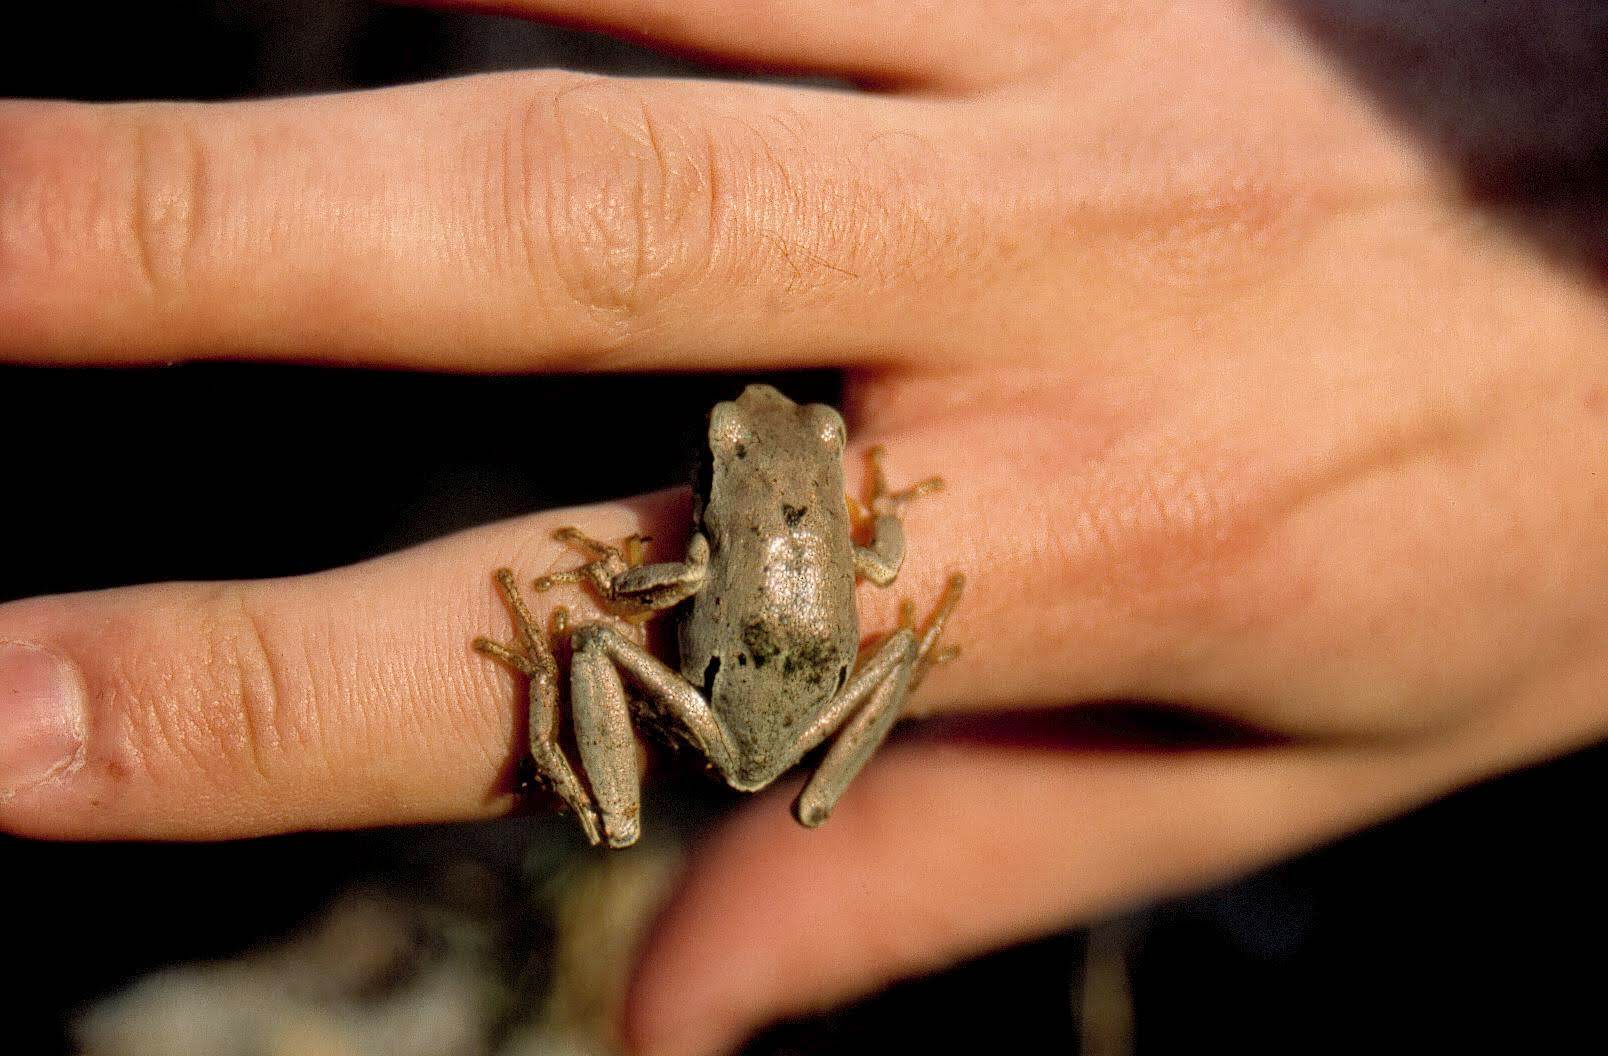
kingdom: Animalia
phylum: Chordata
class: Amphibia
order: Anura
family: Hylidae
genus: Hyla
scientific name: Hyla orientalis
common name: Caucasian treefrog
